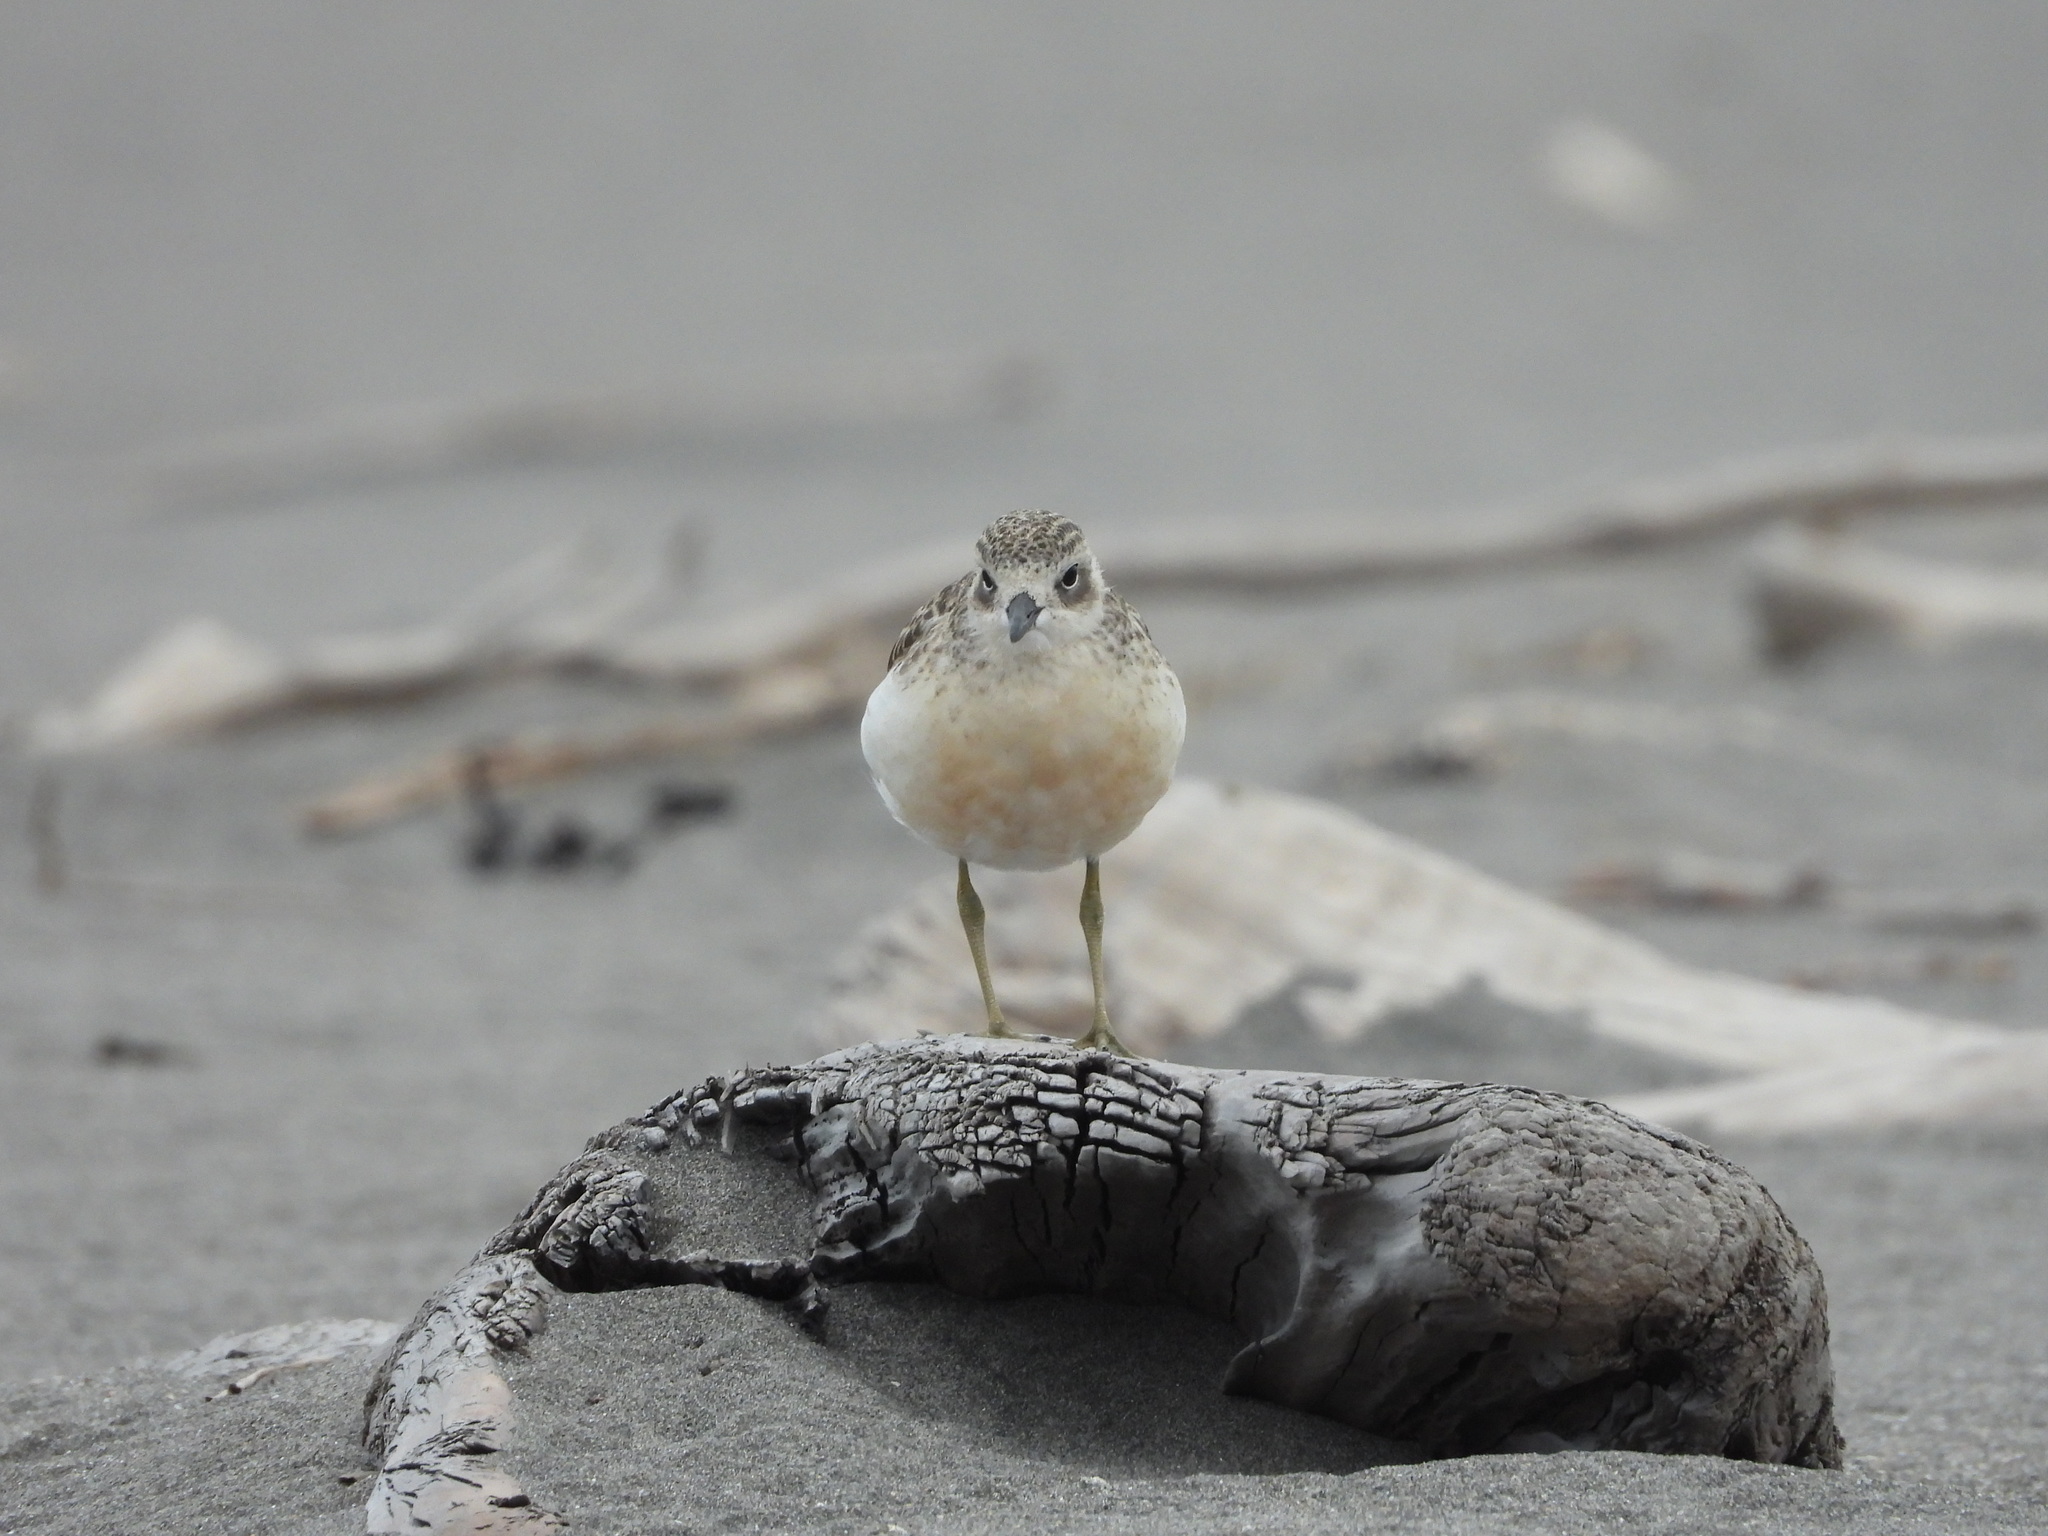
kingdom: Animalia
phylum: Chordata
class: Aves
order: Charadriiformes
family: Charadriidae
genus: Anarhynchus
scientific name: Anarhynchus
